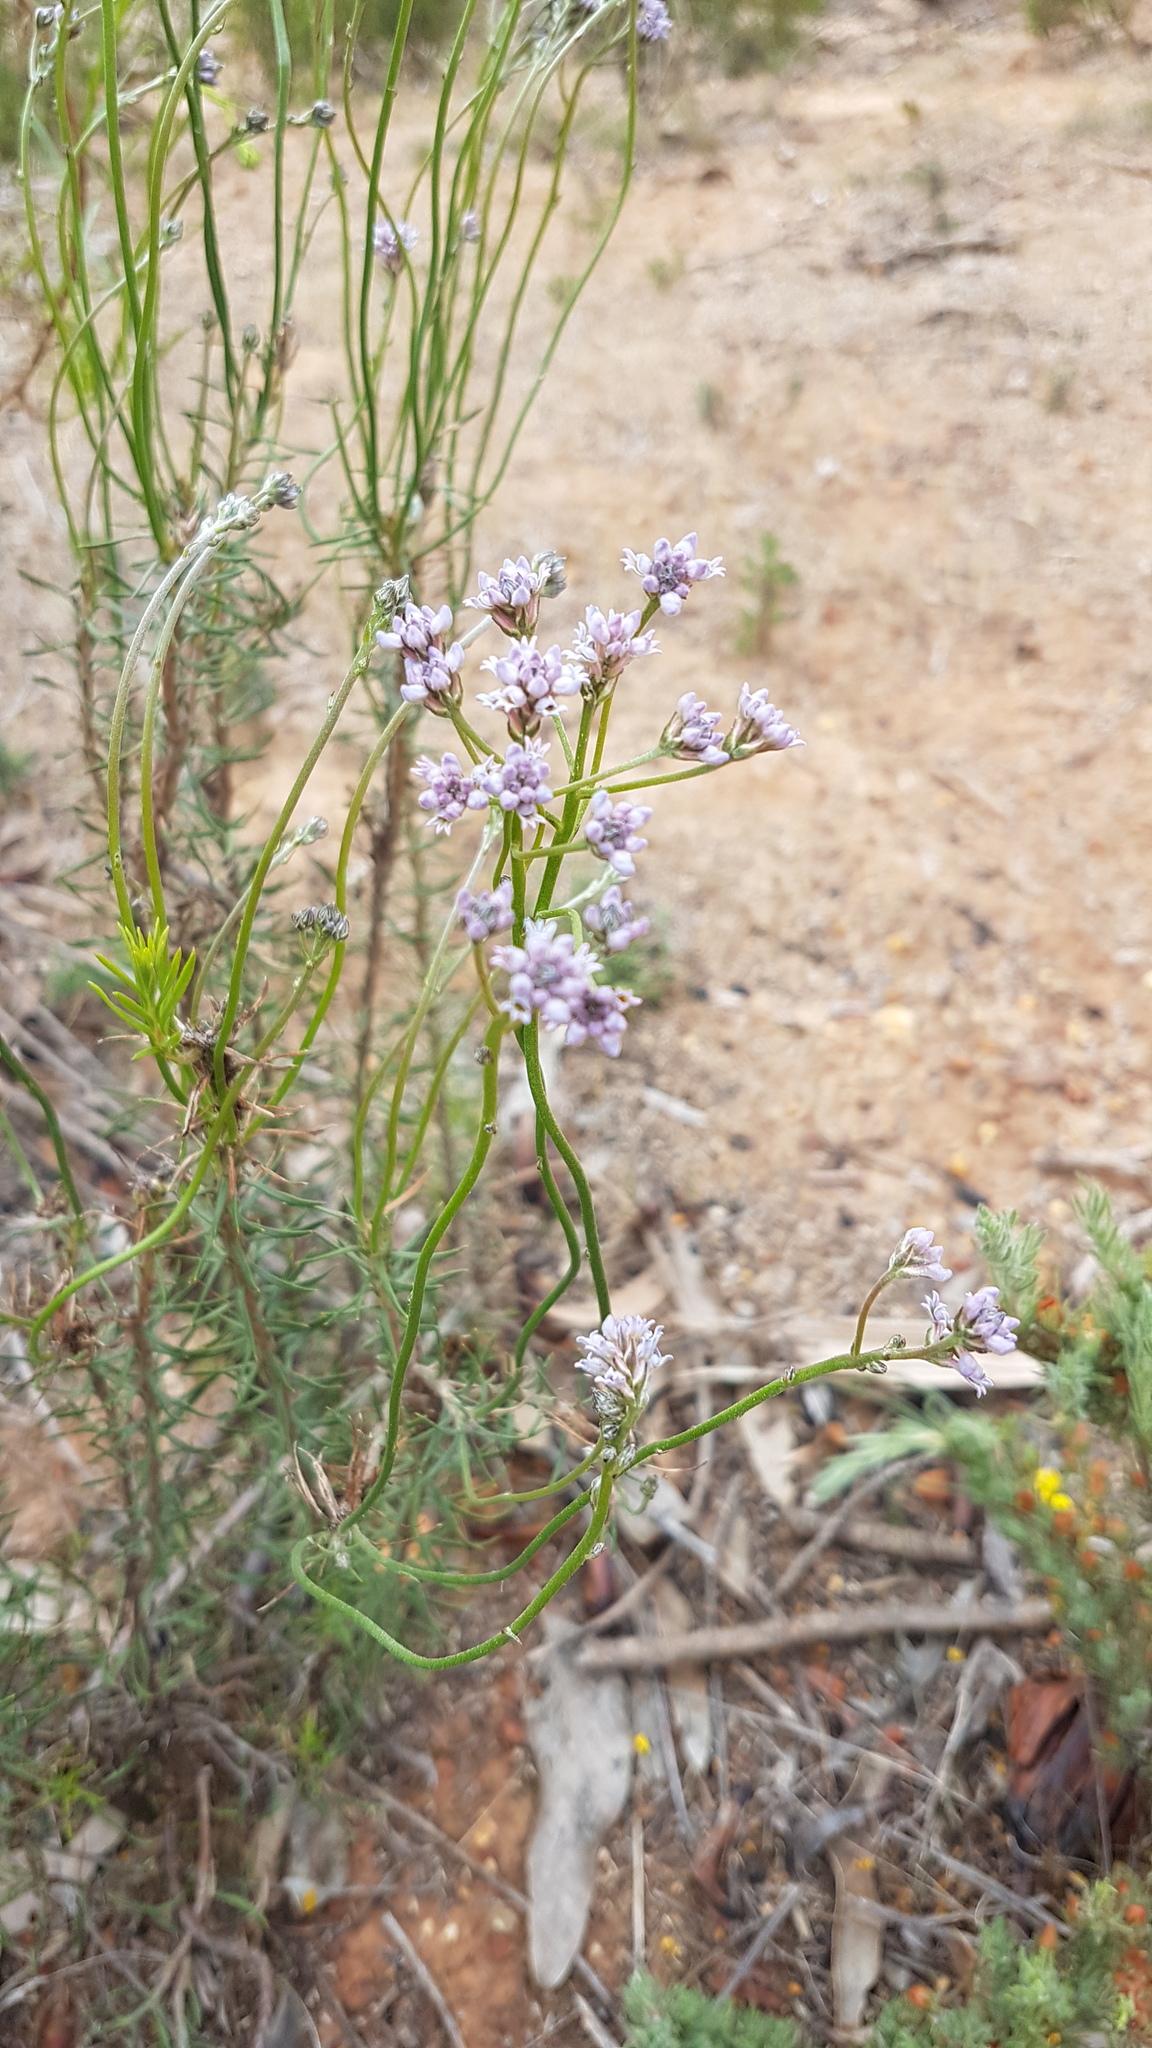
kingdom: Plantae
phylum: Tracheophyta
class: Magnoliopsida
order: Proteales
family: Proteaceae
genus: Conospermum
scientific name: Conospermum patens
